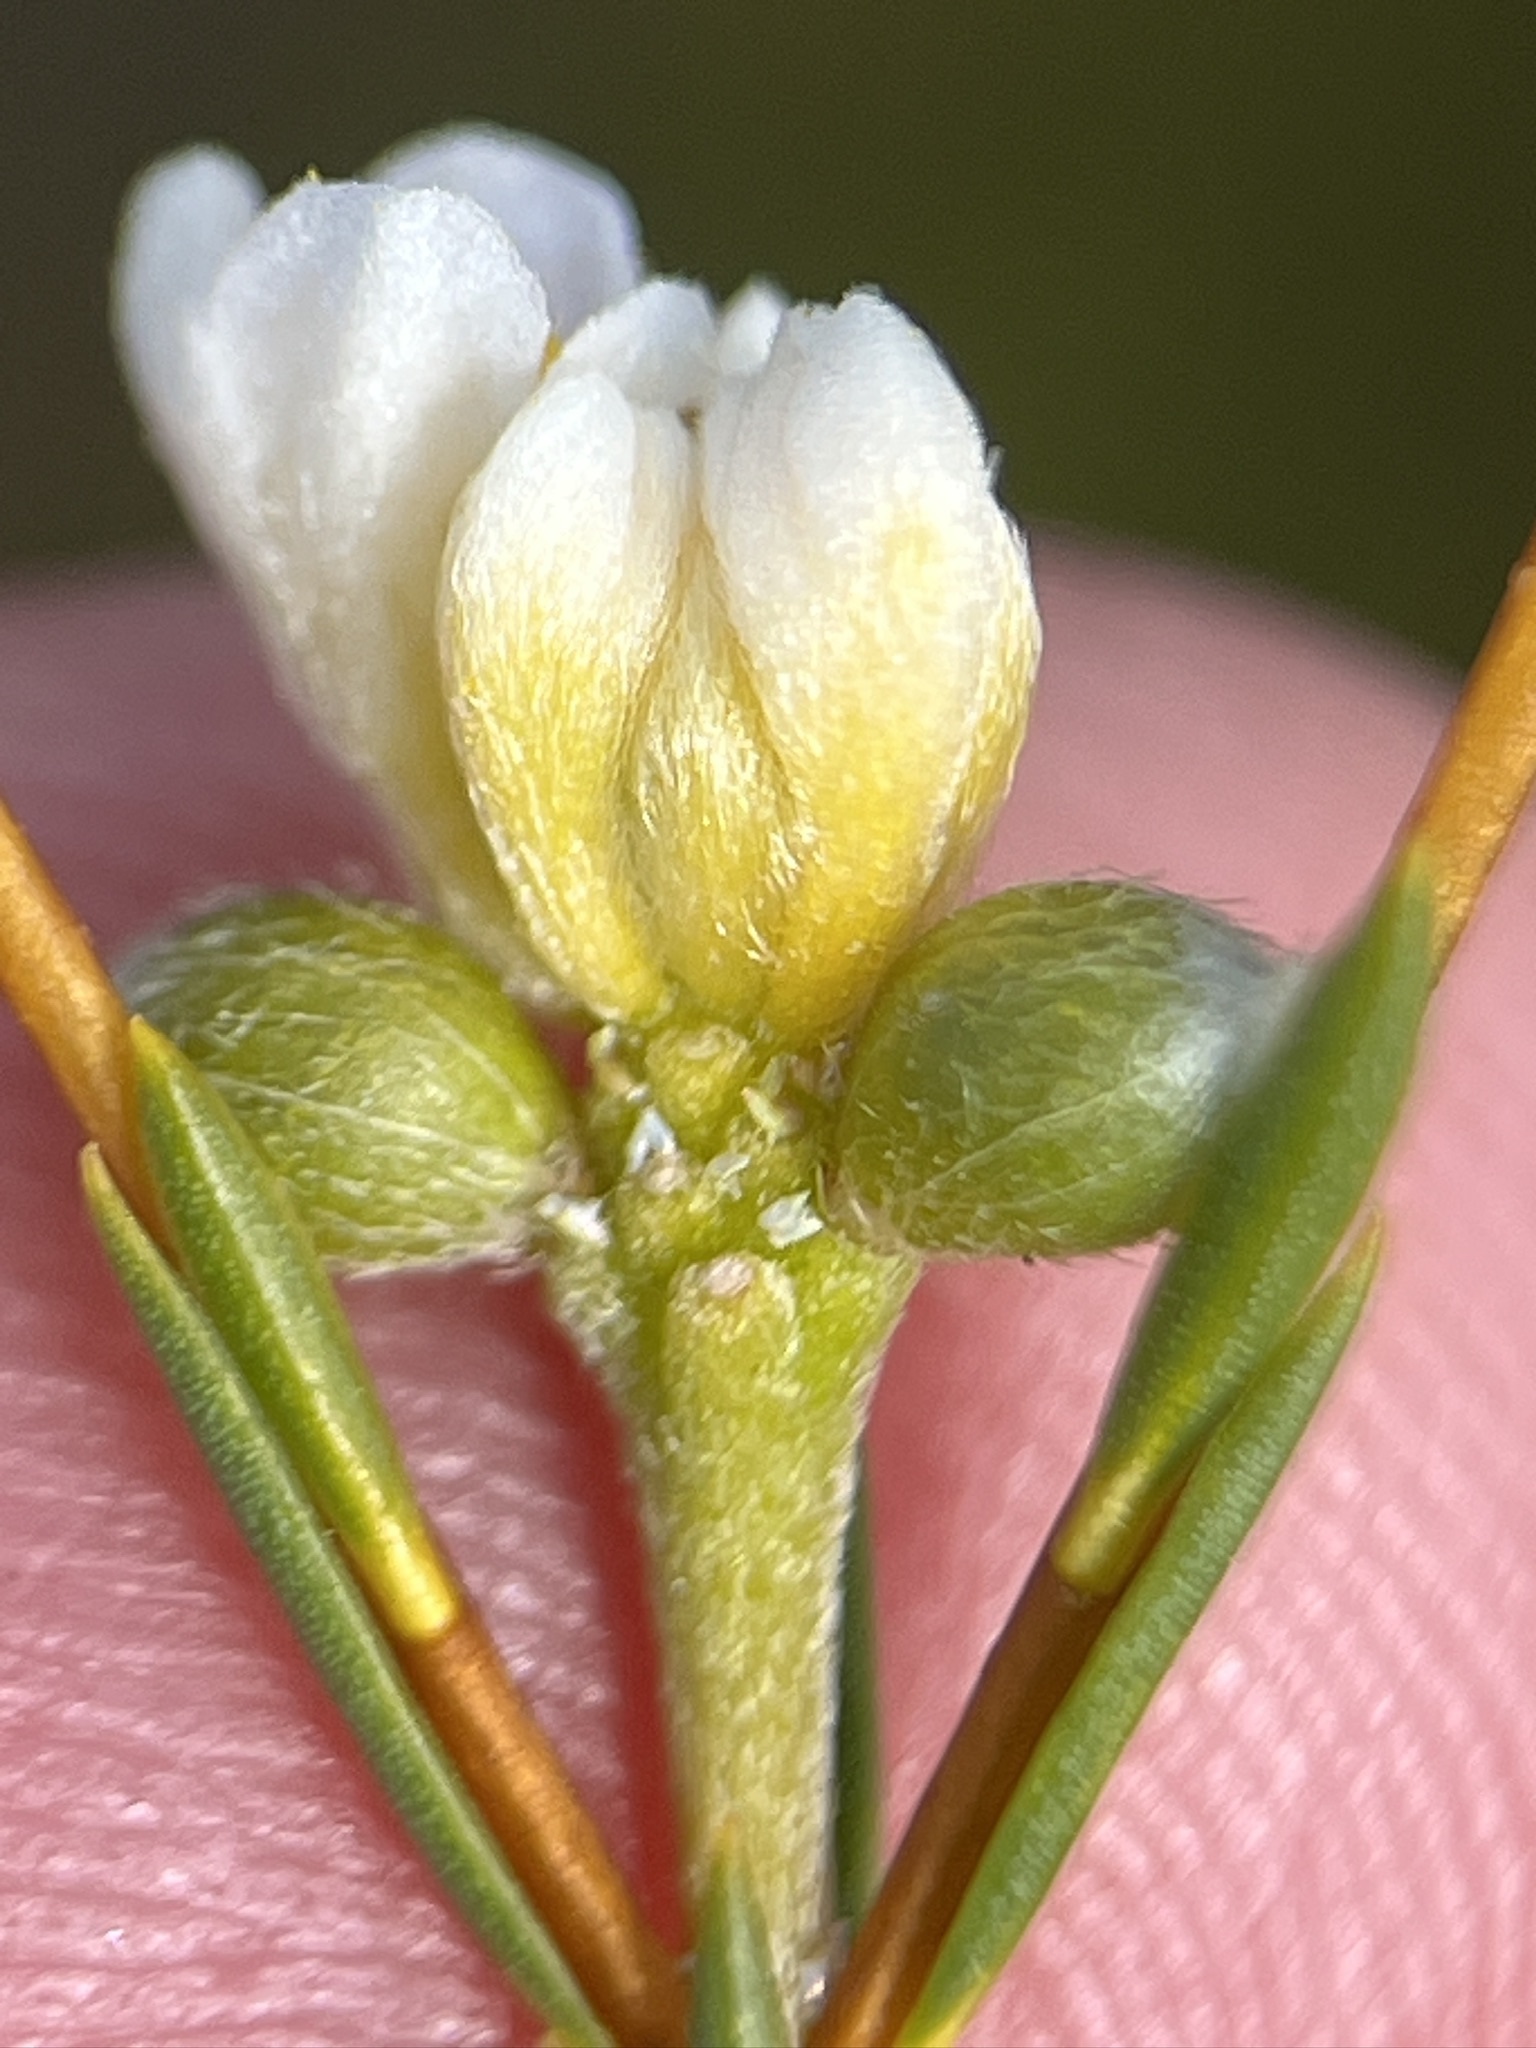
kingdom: Plantae
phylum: Tracheophyta
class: Magnoliopsida
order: Malvales
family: Thymelaeaceae
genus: Lachnaea
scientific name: Lachnaea capitata
